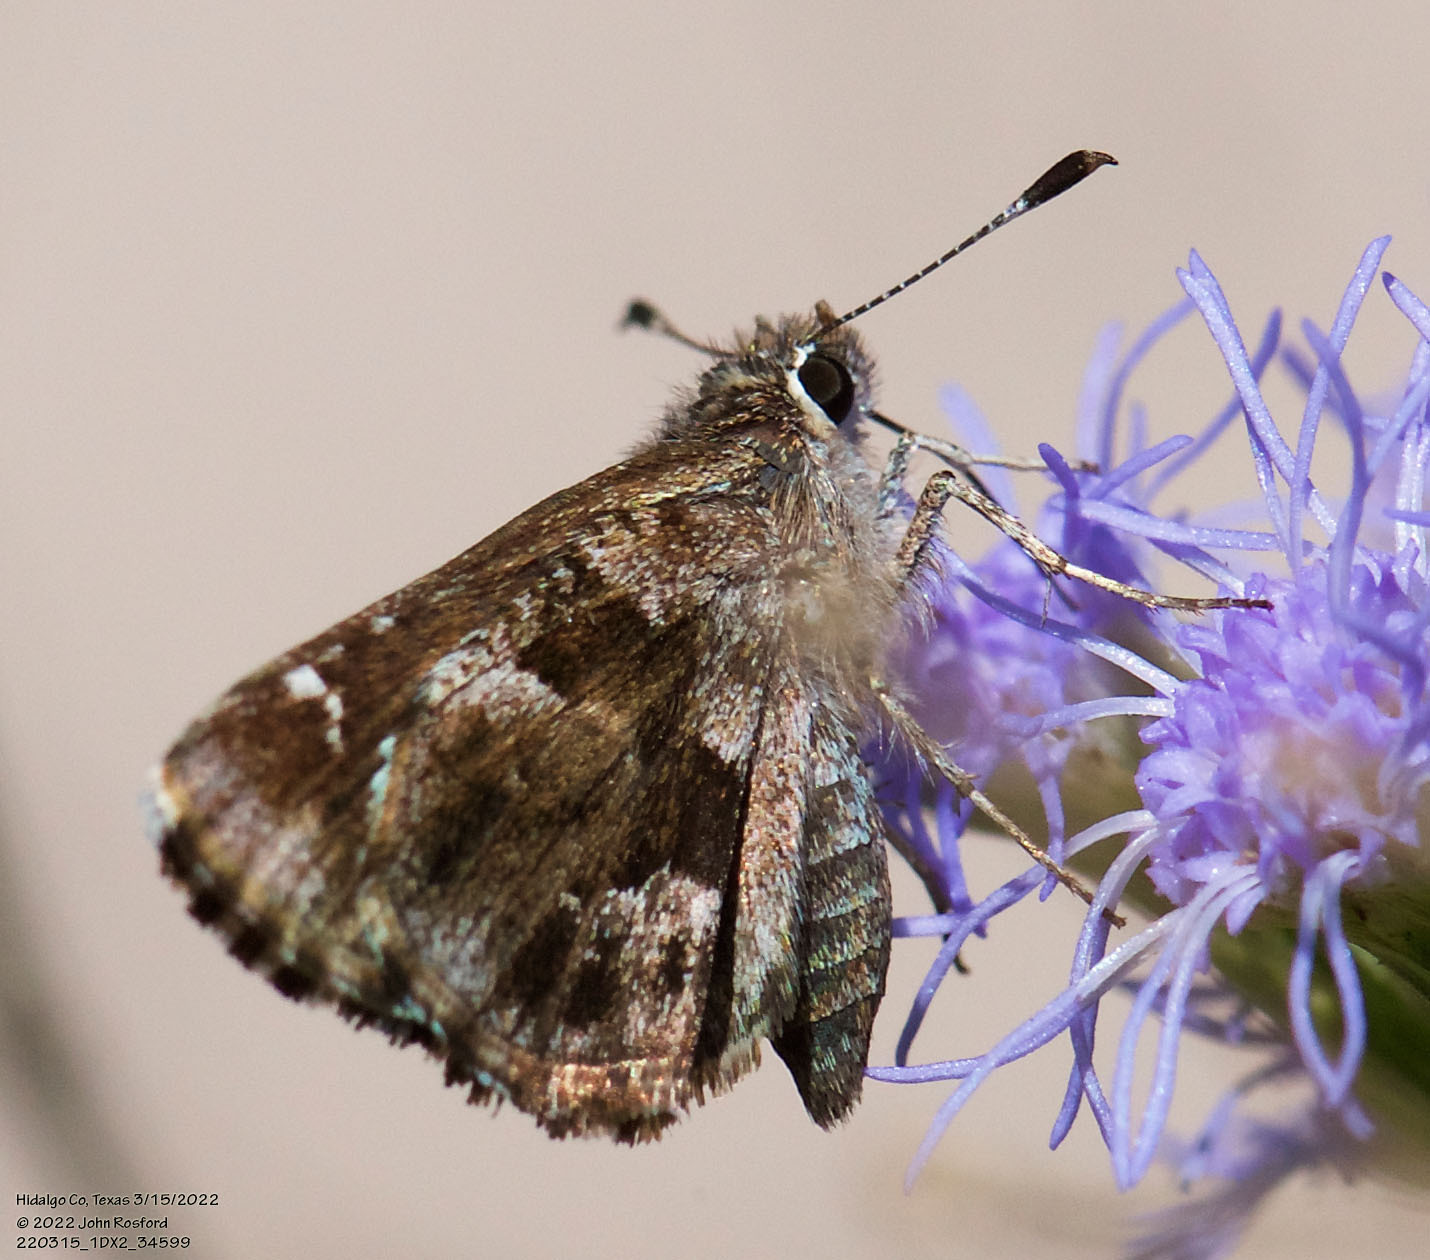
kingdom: Animalia
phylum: Arthropoda
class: Insecta
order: Lepidoptera
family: Hesperiidae
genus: Mastor
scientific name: Mastor nysa
